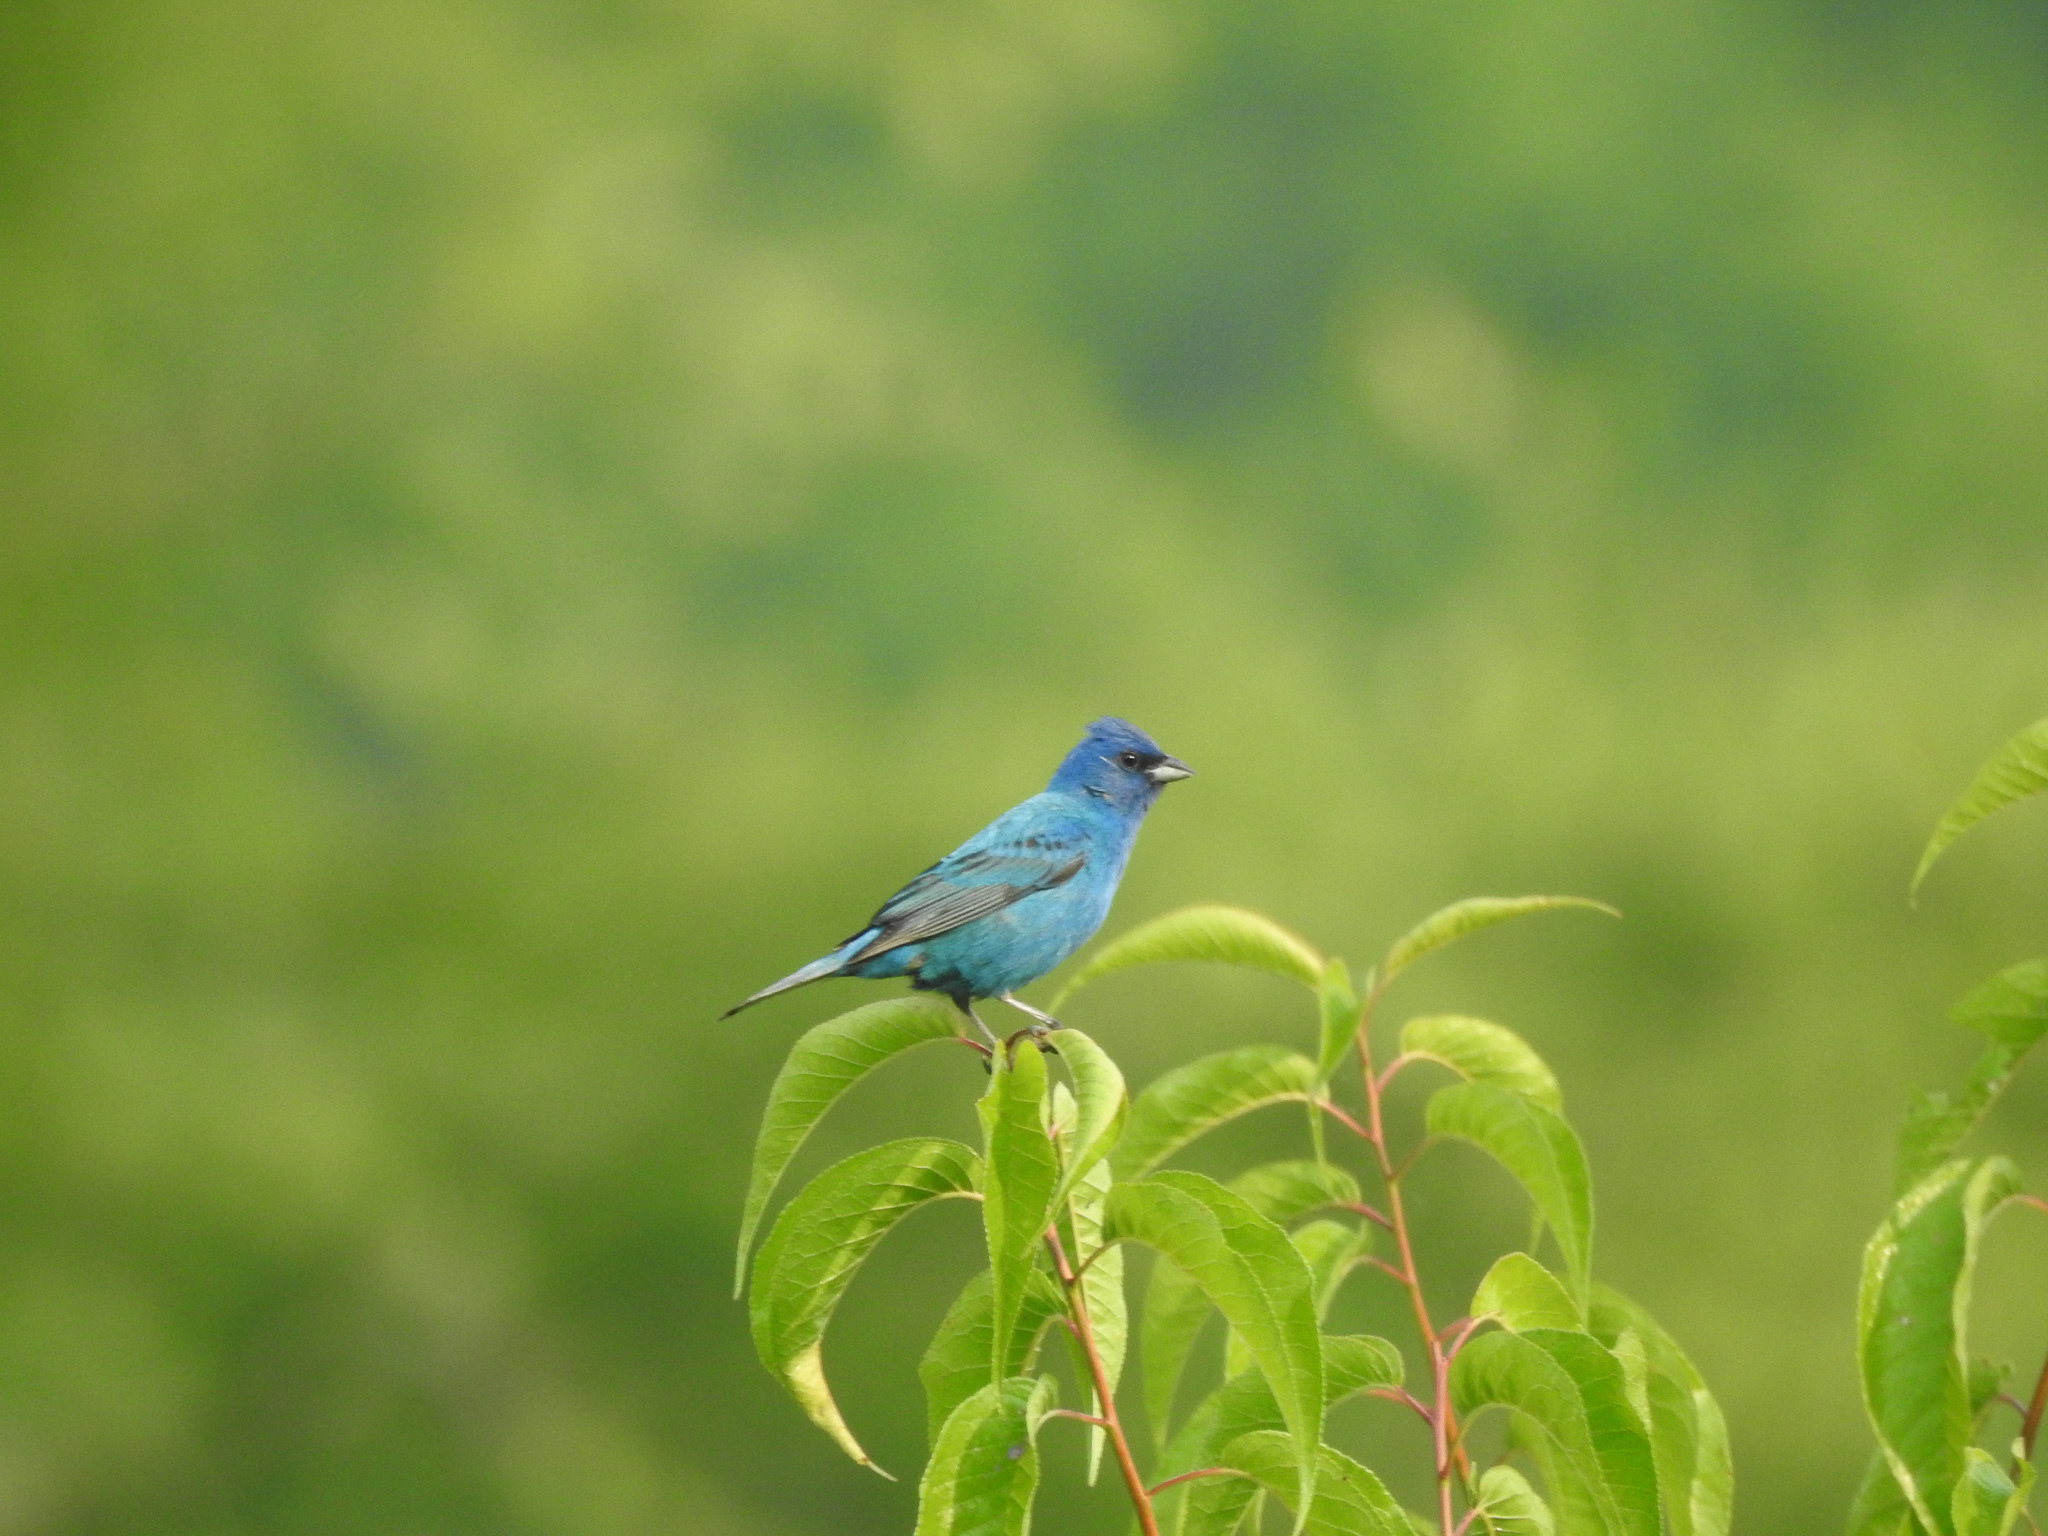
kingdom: Animalia
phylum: Chordata
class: Aves
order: Passeriformes
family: Cardinalidae
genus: Passerina
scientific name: Passerina cyanea
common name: Indigo bunting
